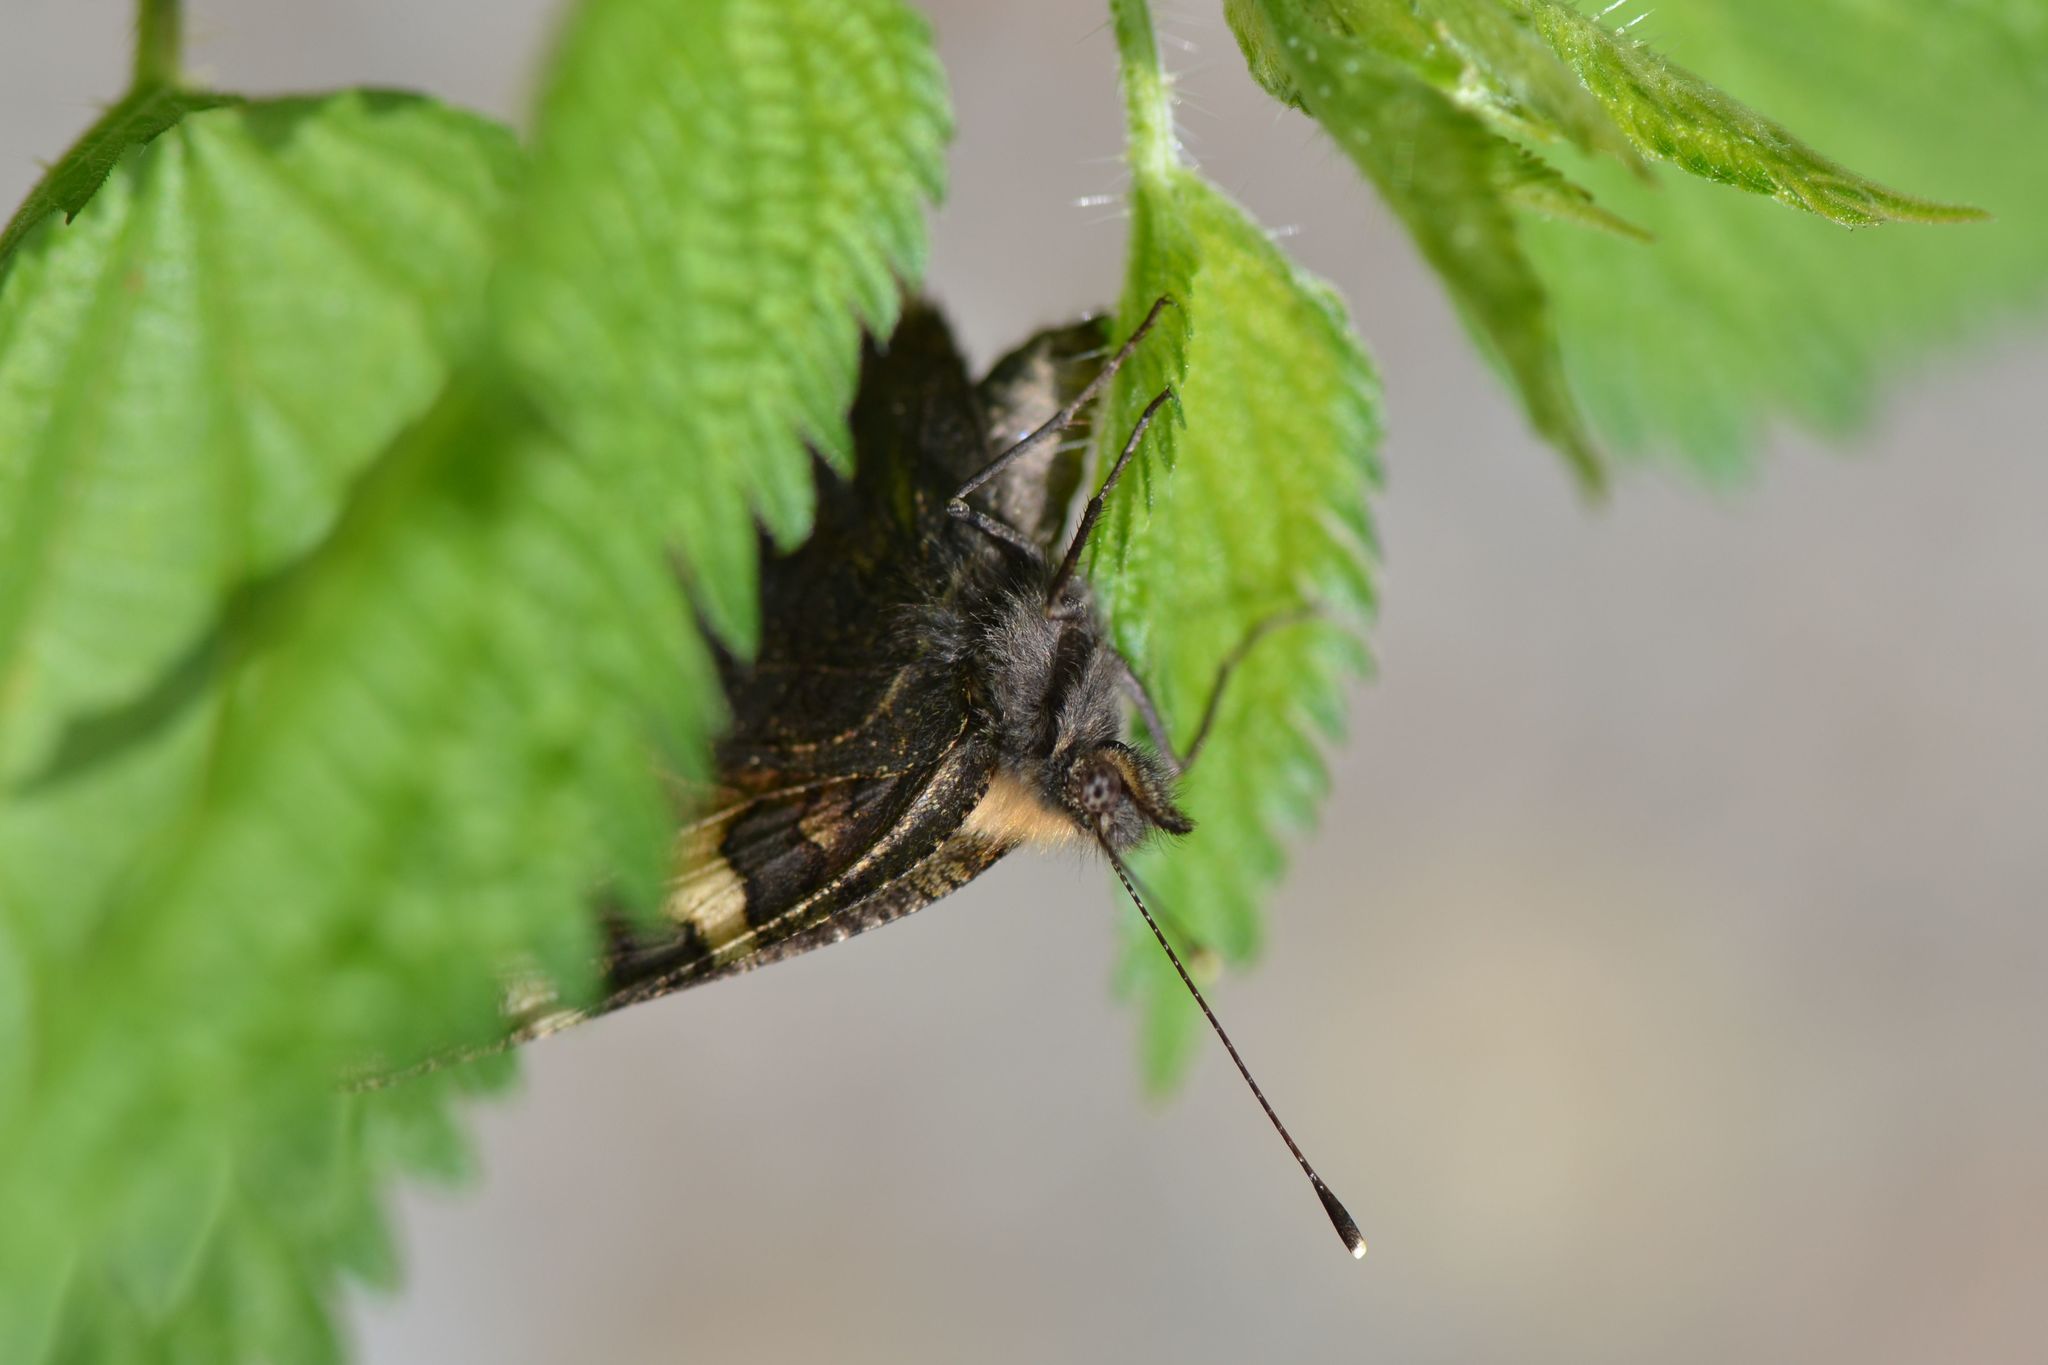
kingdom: Animalia
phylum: Arthropoda
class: Insecta
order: Lepidoptera
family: Nymphalidae
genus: Aglais
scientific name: Aglais urticae
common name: Small tortoiseshell
